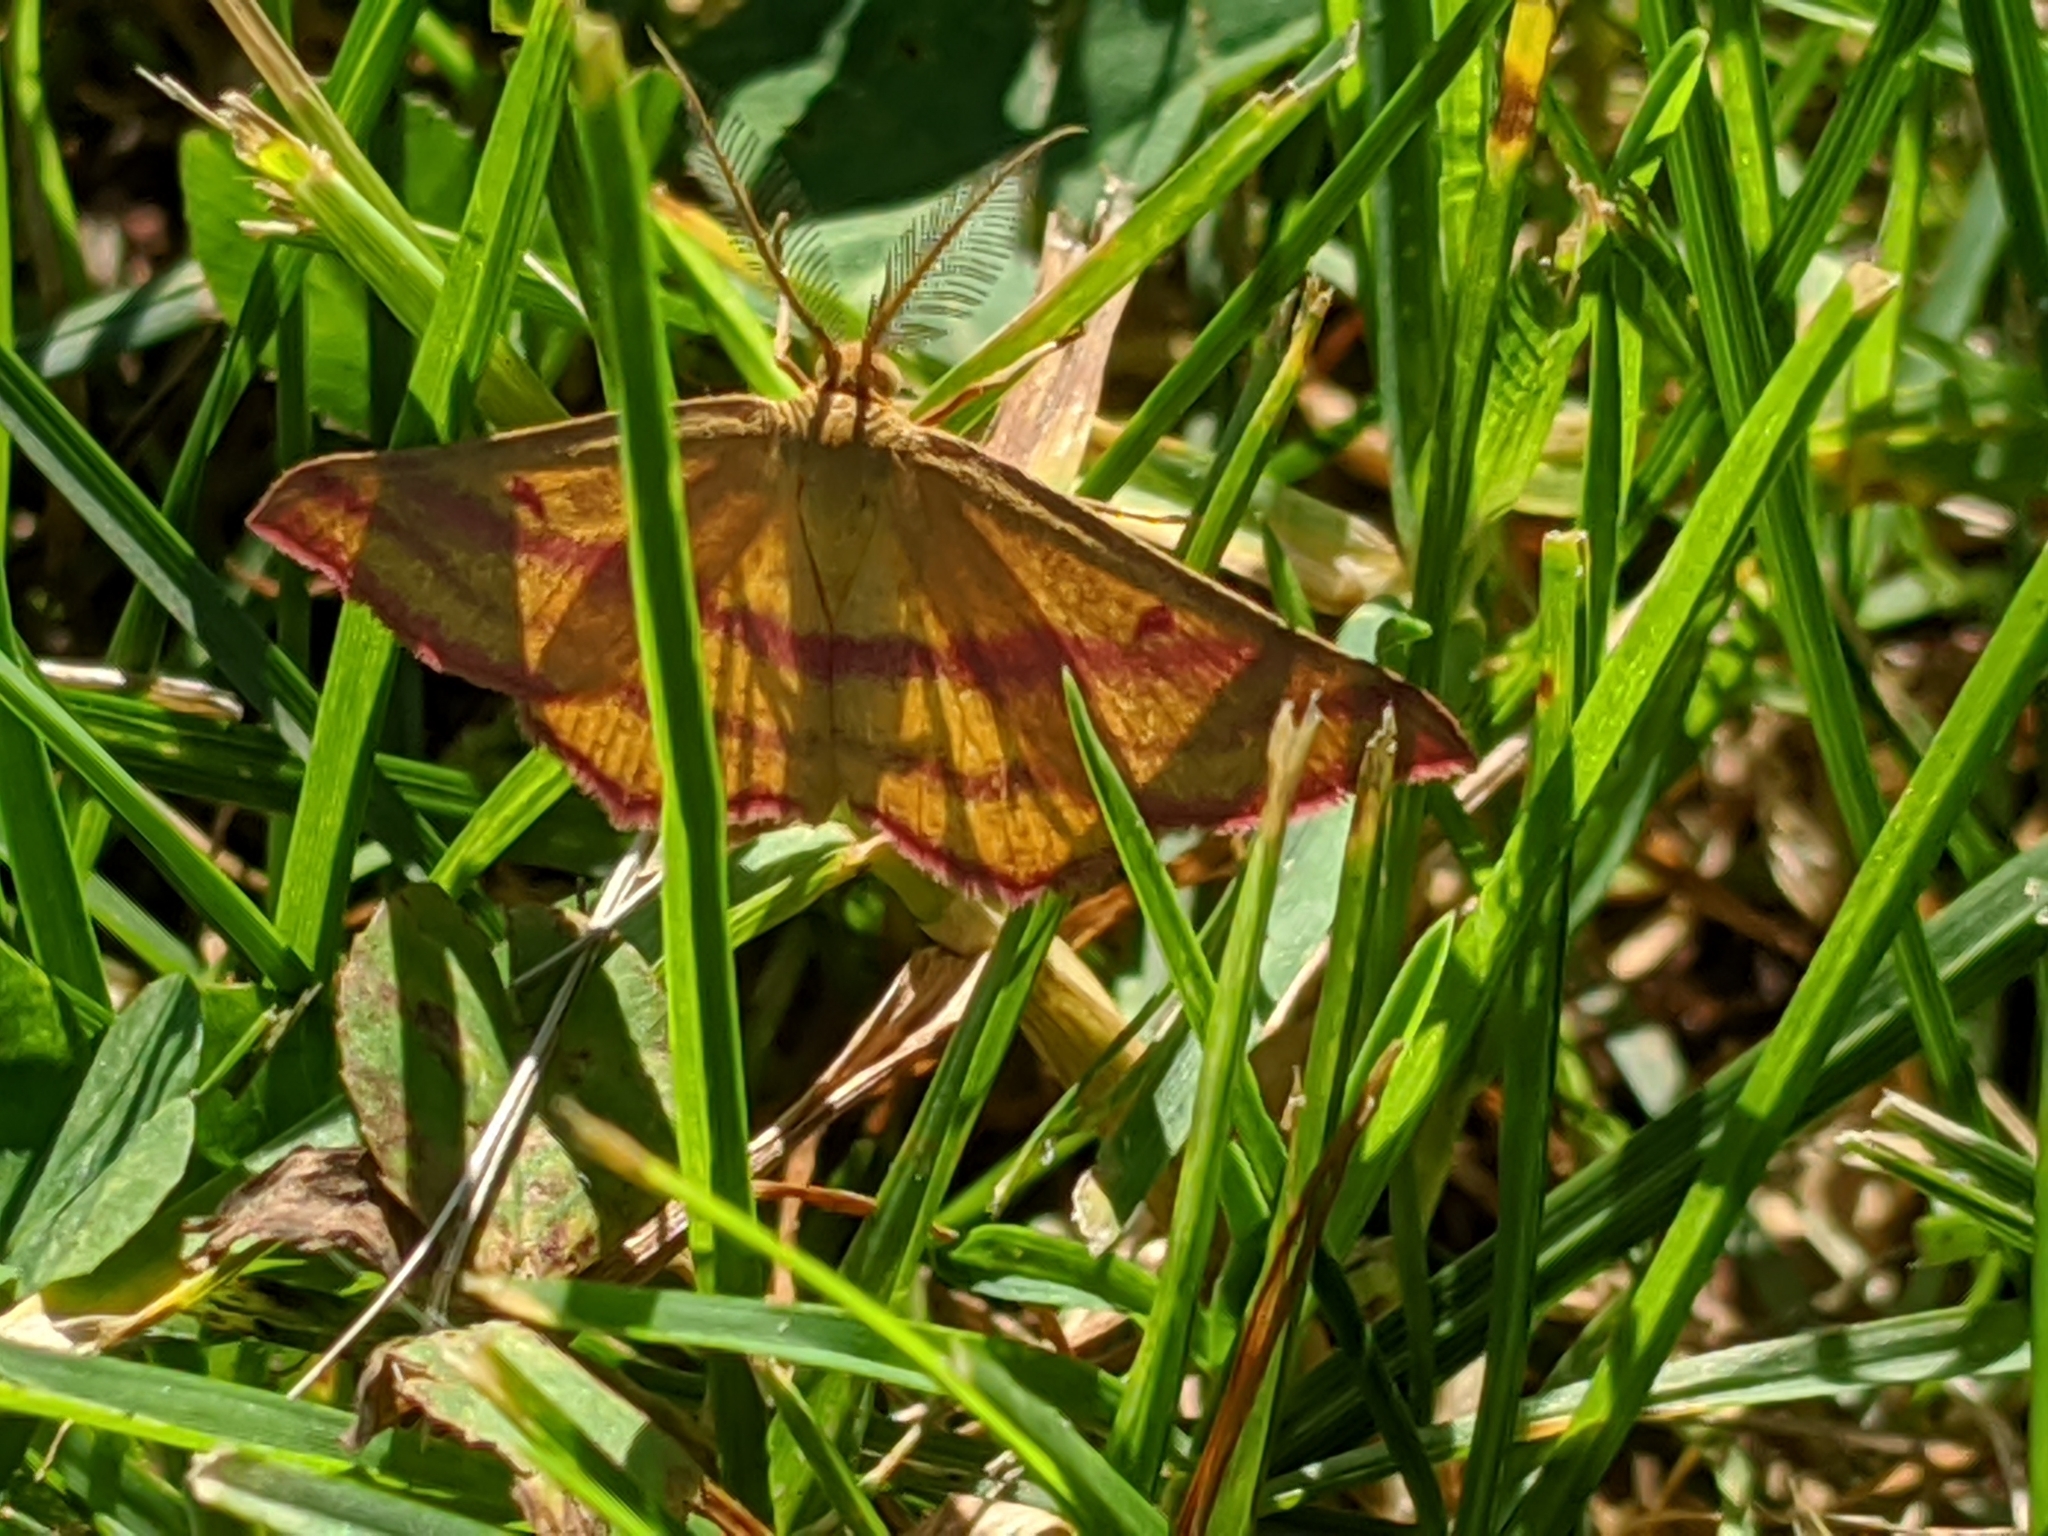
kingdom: Animalia
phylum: Arthropoda
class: Insecta
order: Lepidoptera
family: Geometridae
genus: Haematopis
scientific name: Haematopis grataria
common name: Chickweed geometer
